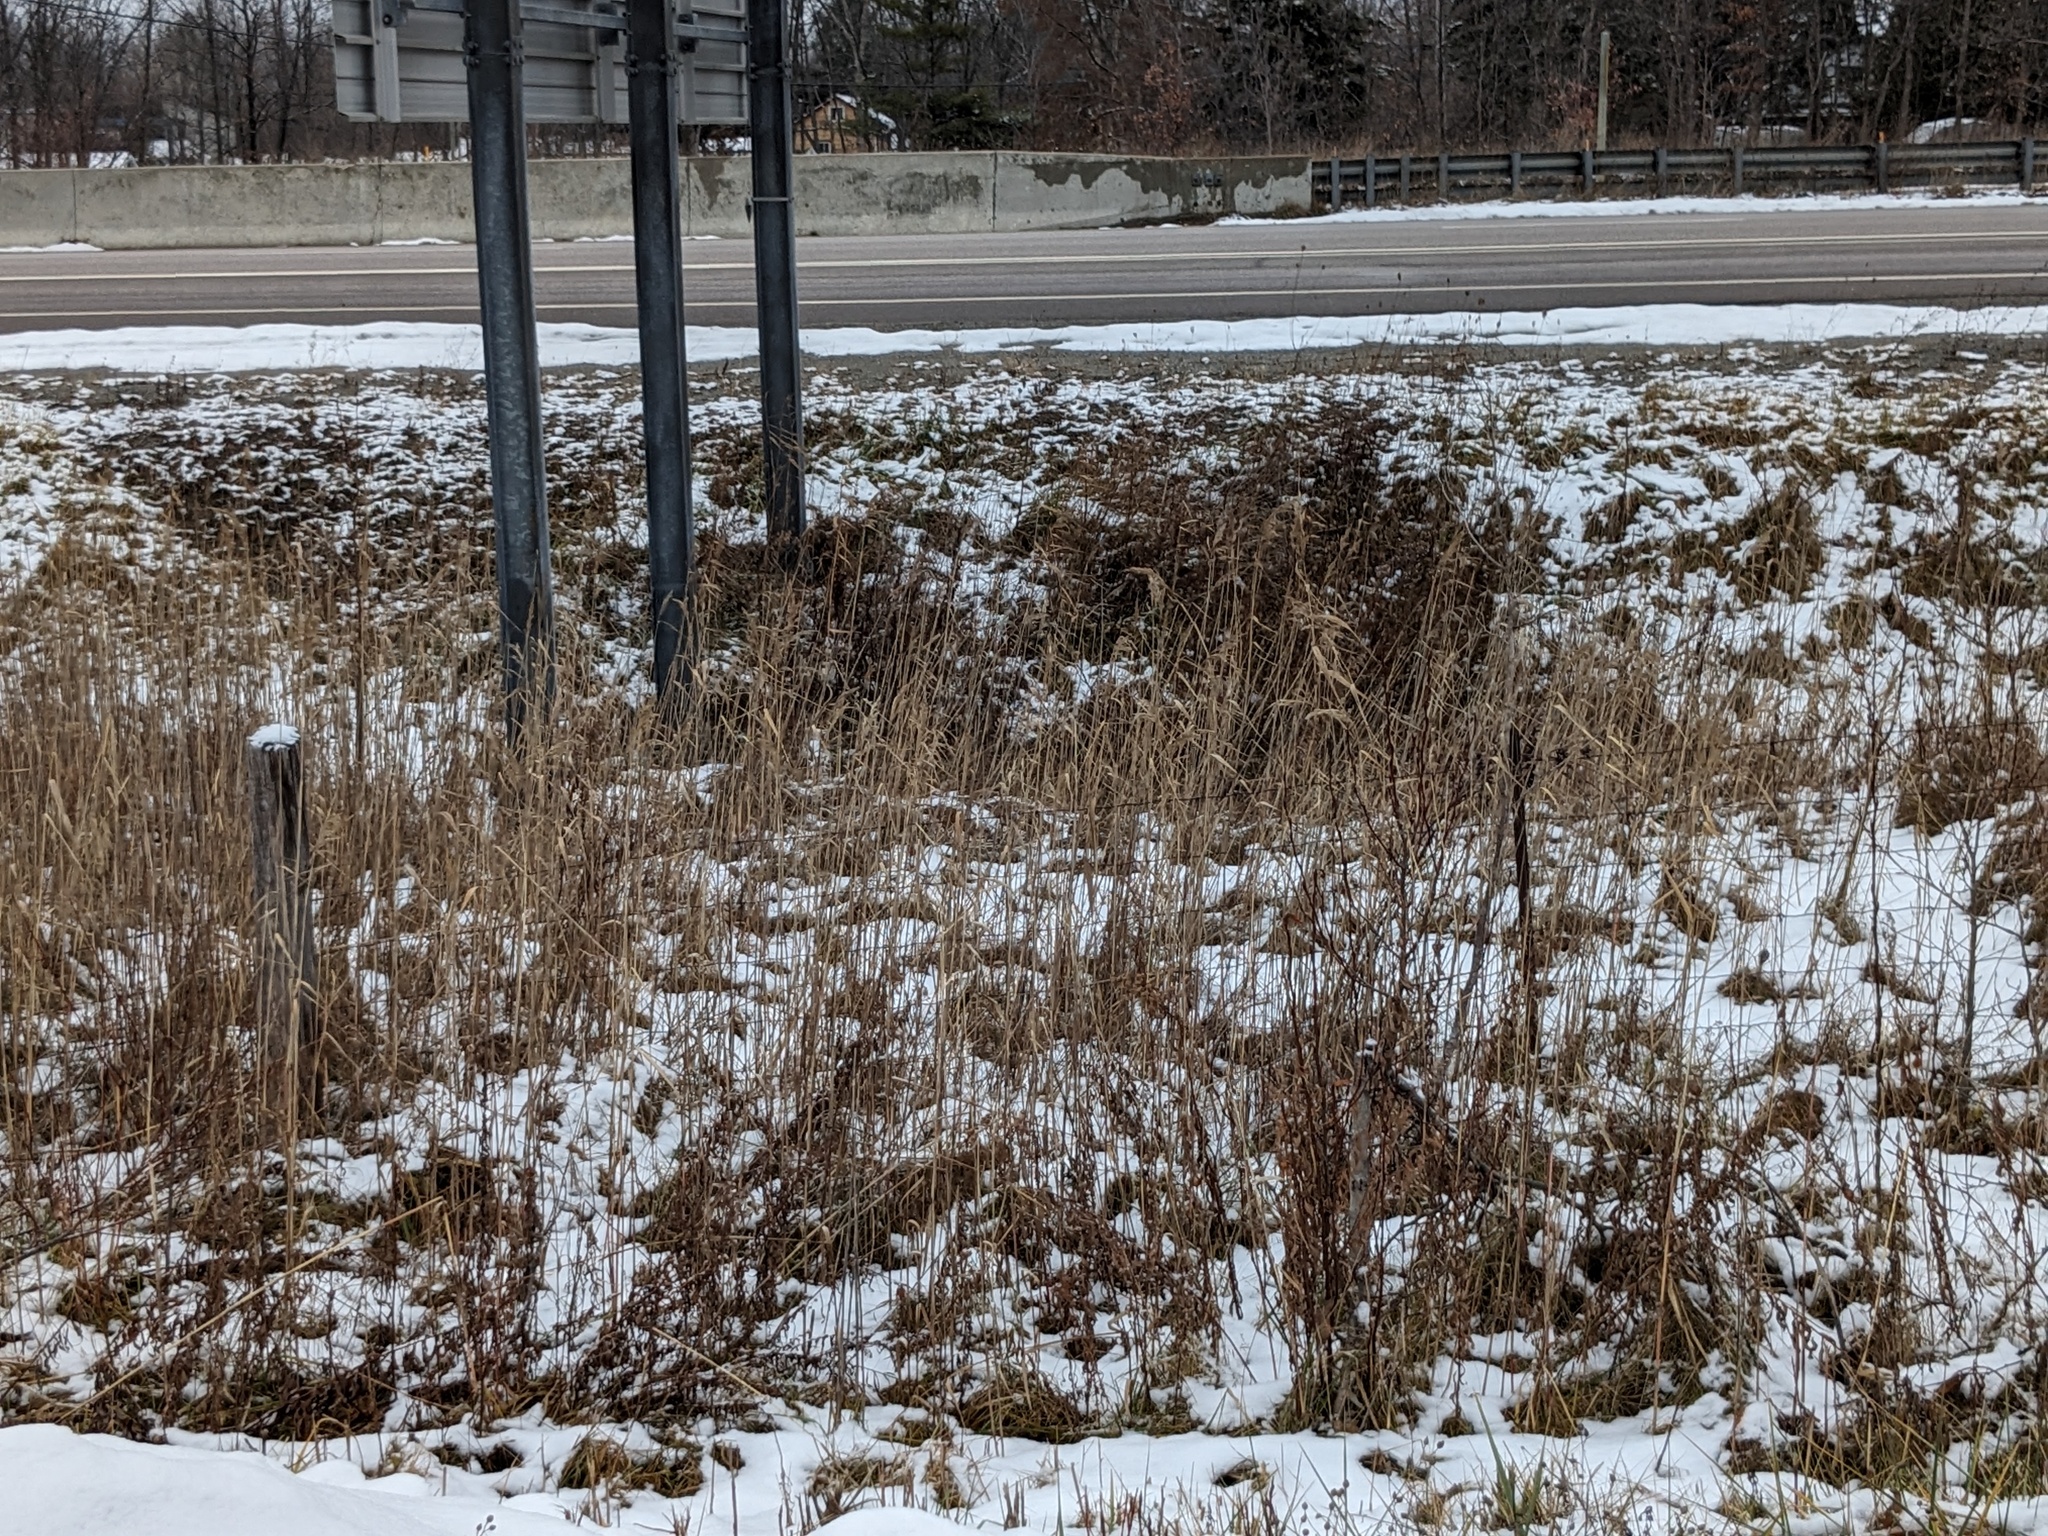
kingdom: Plantae
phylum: Tracheophyta
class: Liliopsida
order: Poales
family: Poaceae
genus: Phragmites
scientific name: Phragmites australis
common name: Common reed
